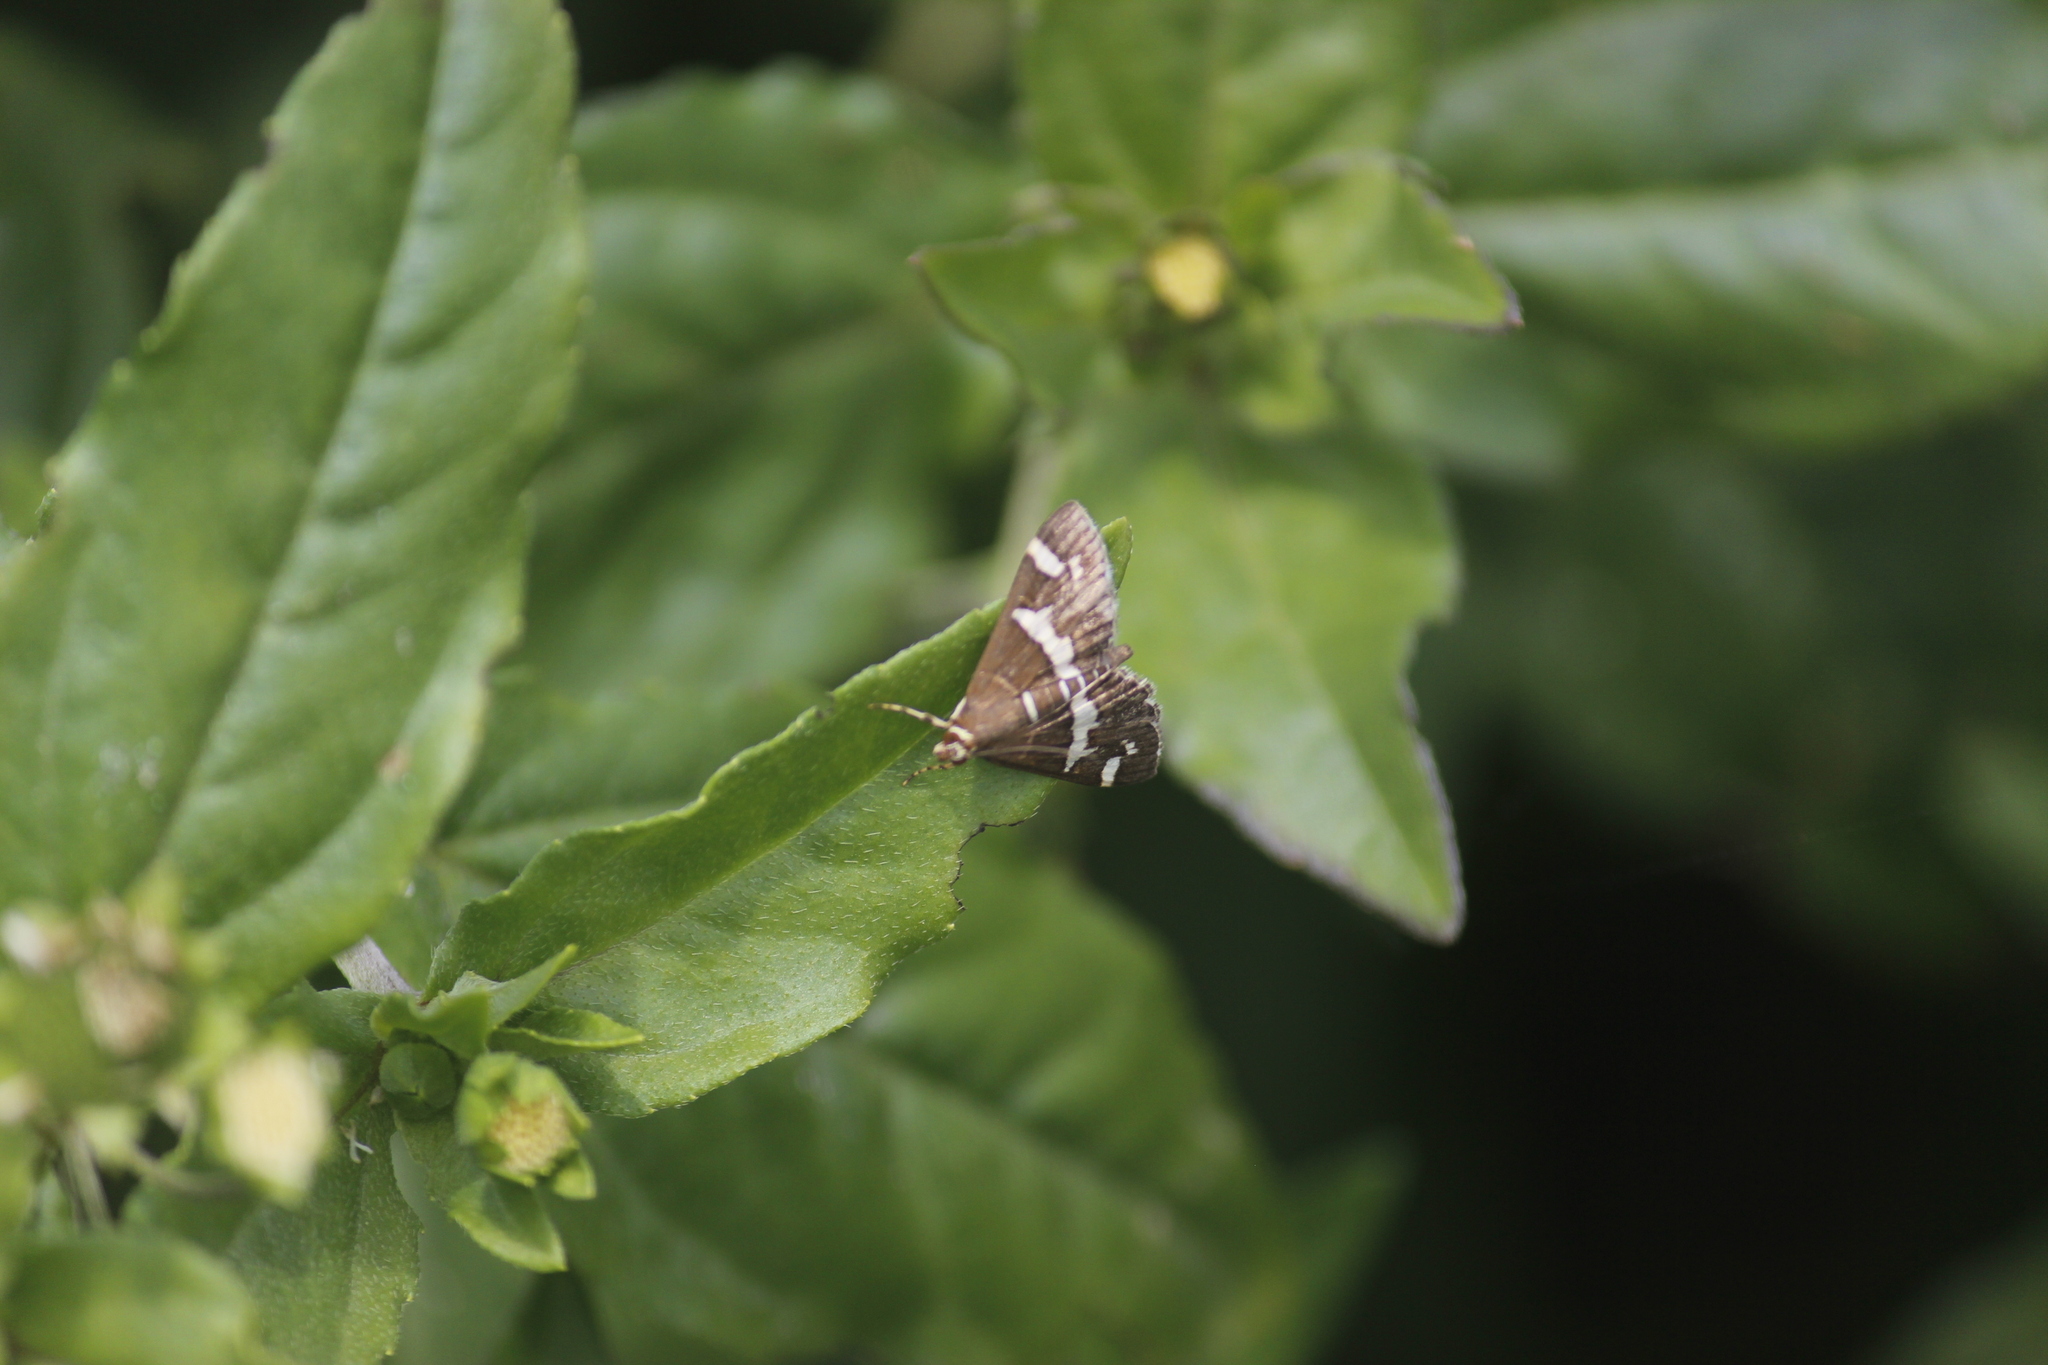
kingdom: Animalia
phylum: Arthropoda
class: Insecta
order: Lepidoptera
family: Crambidae
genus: Spoladea
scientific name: Spoladea recurvalis
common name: Beet webworm moth
